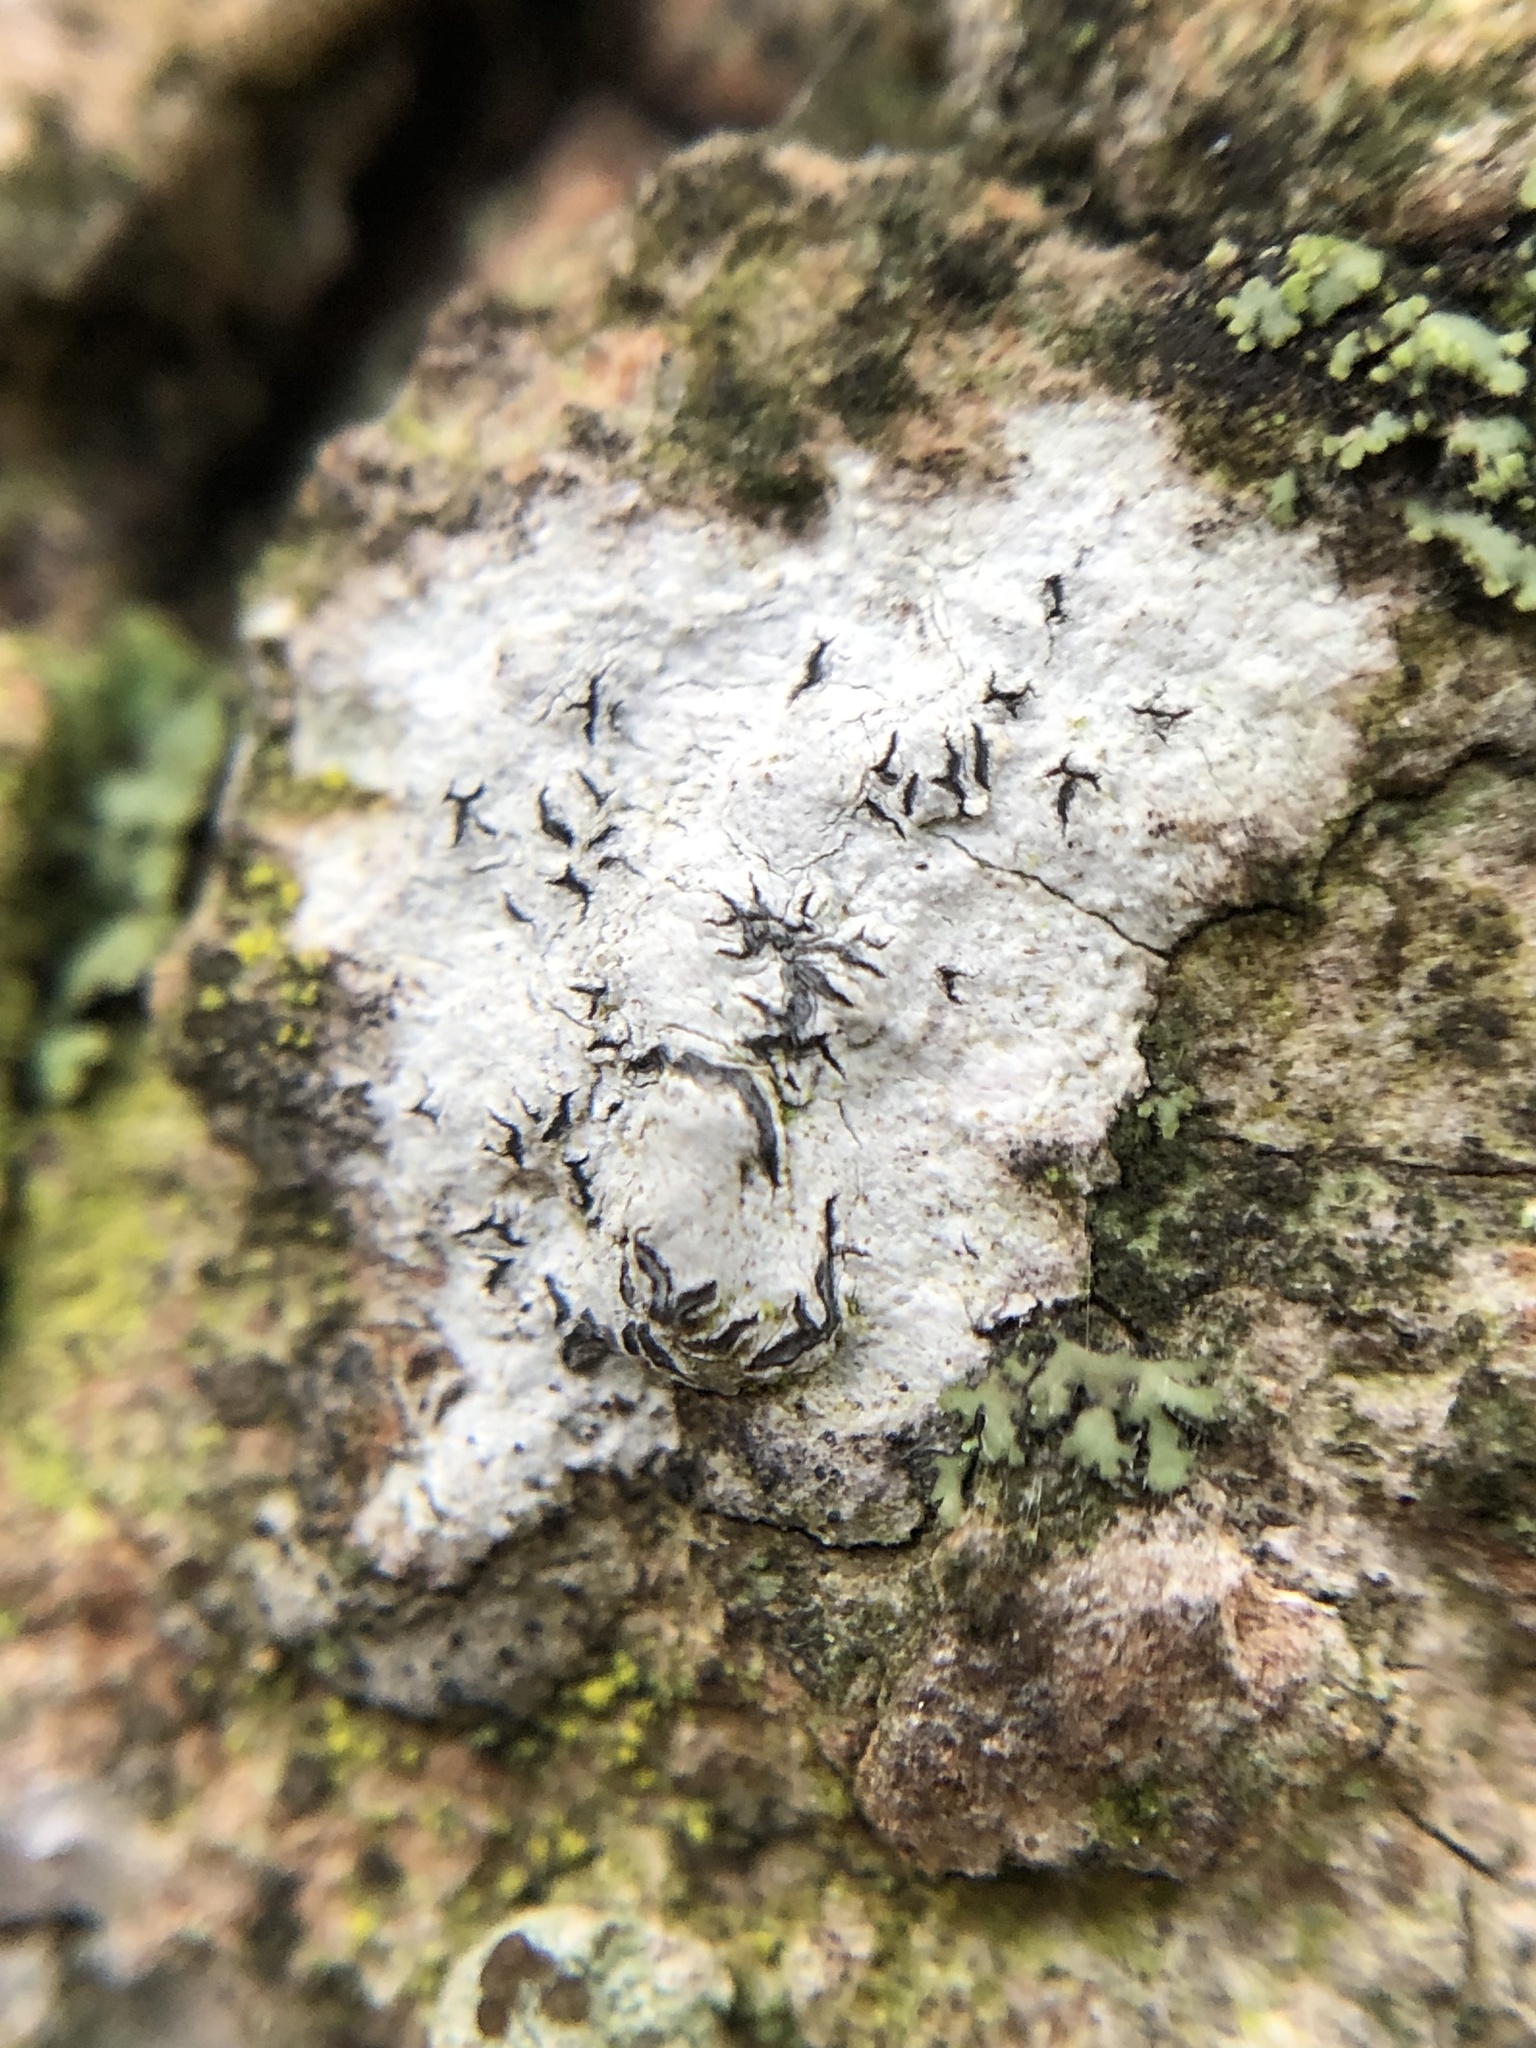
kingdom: Fungi
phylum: Ascomycota
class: Lecanoromycetes
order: Ostropales
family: Graphidaceae
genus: Graphis
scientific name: Graphis scripta
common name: Script lichen
